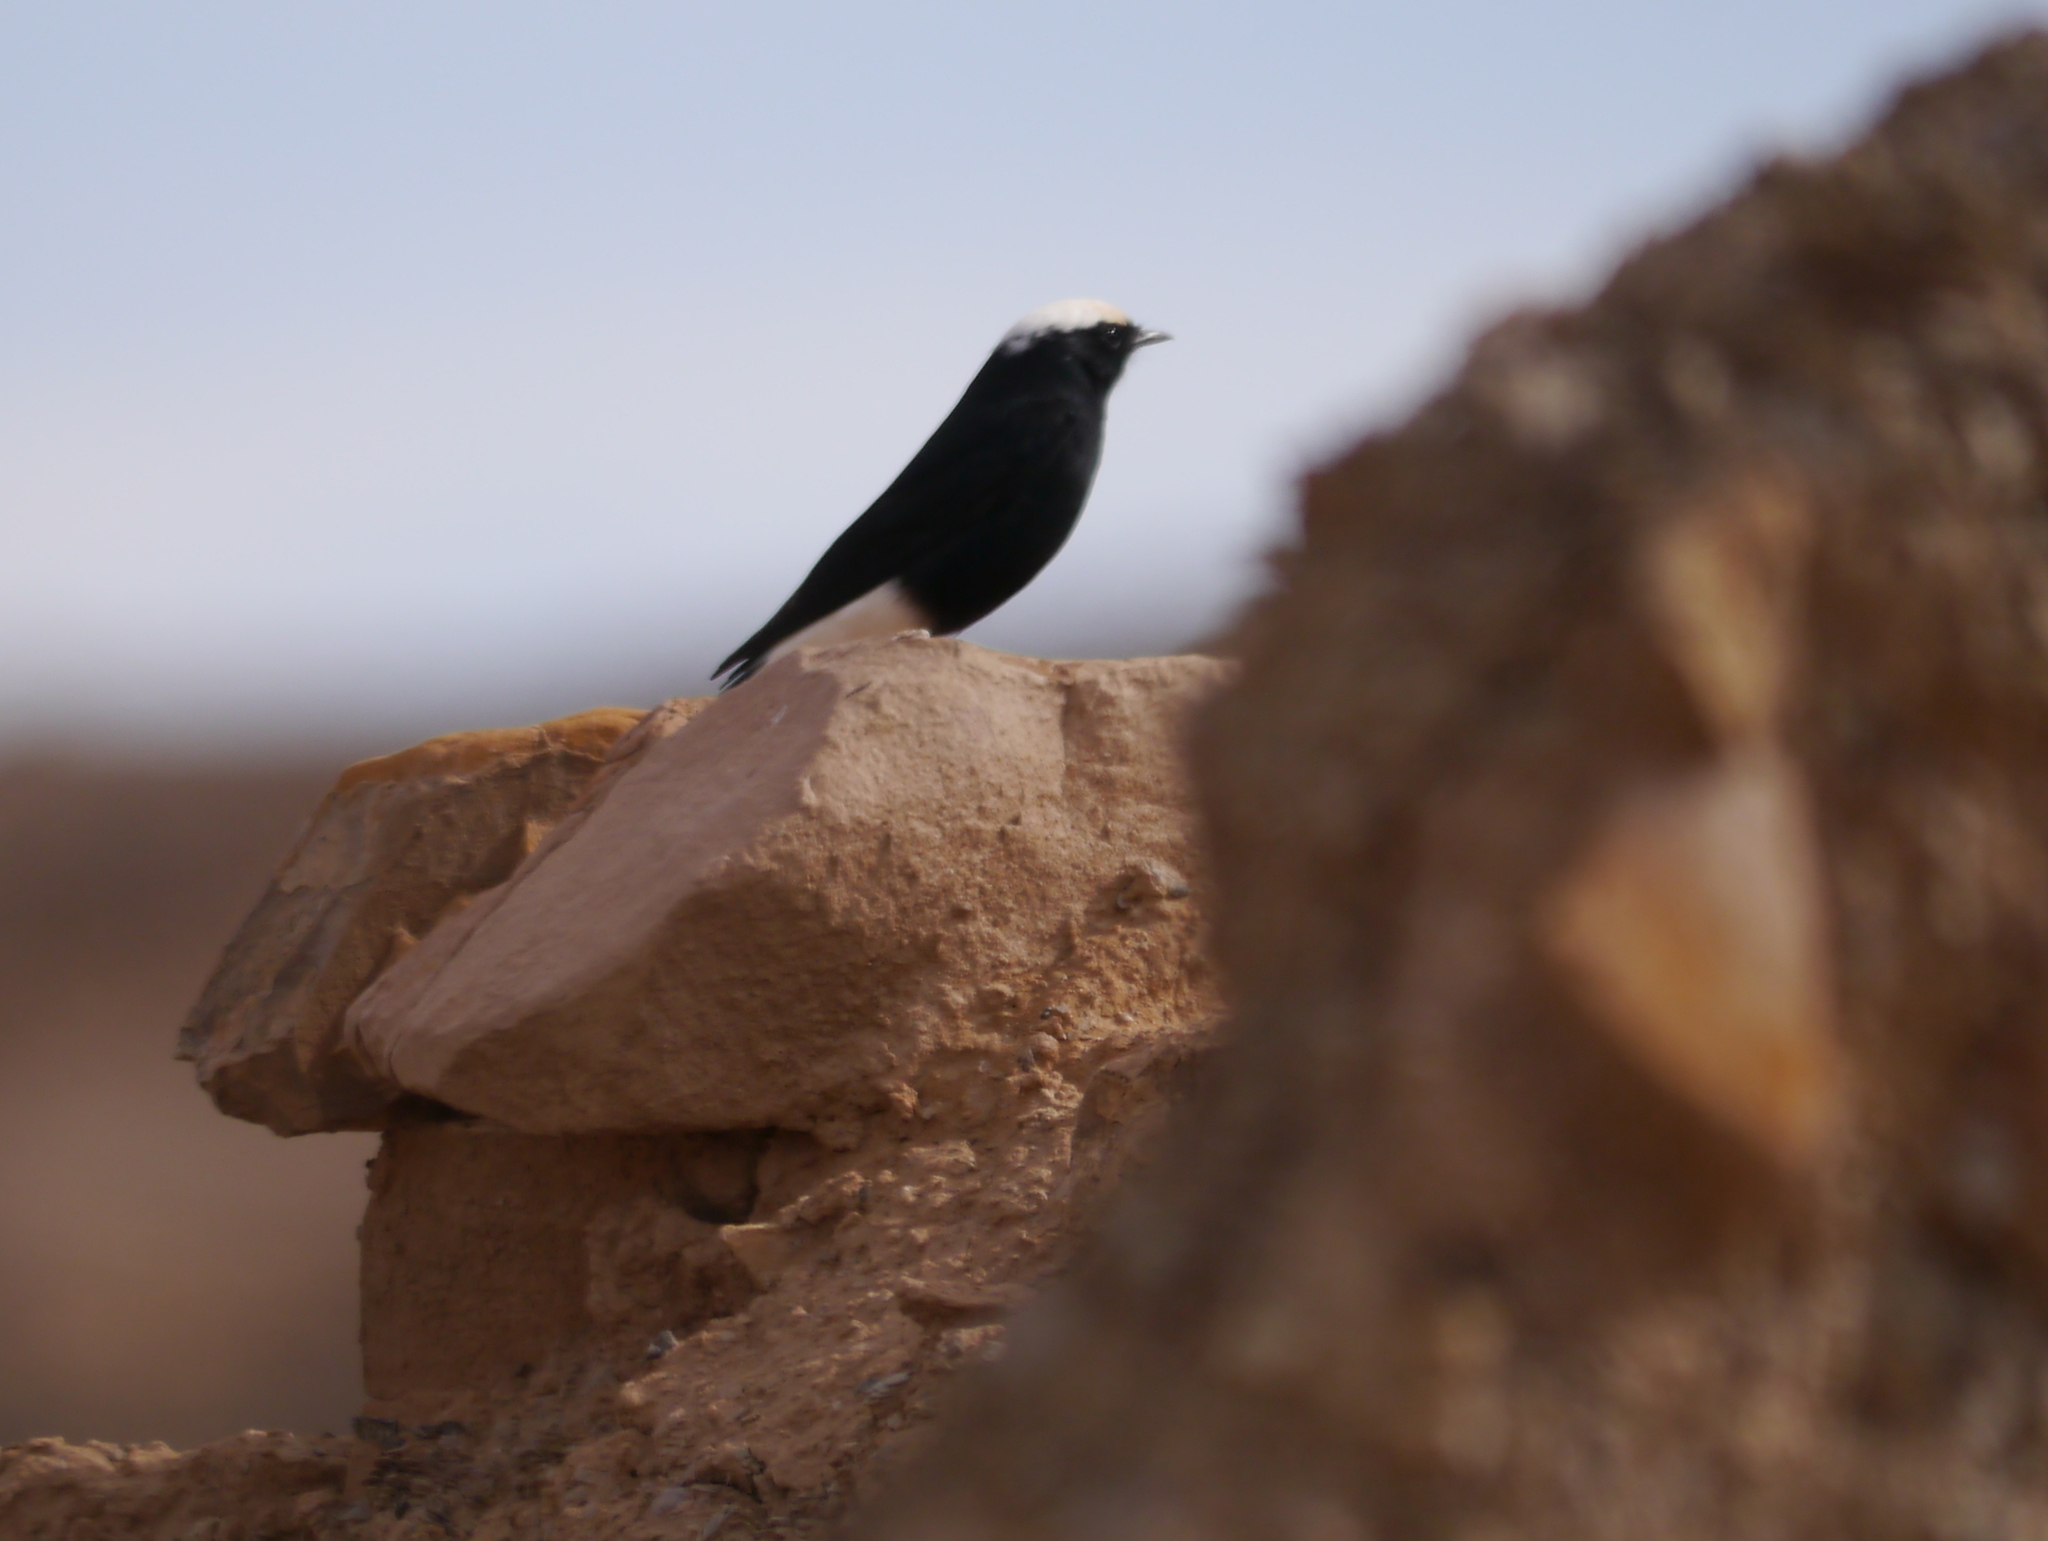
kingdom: Animalia
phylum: Chordata
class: Aves
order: Passeriformes
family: Muscicapidae
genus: Oenanthe
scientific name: Oenanthe leucopyga
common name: White-crowned wheatear
